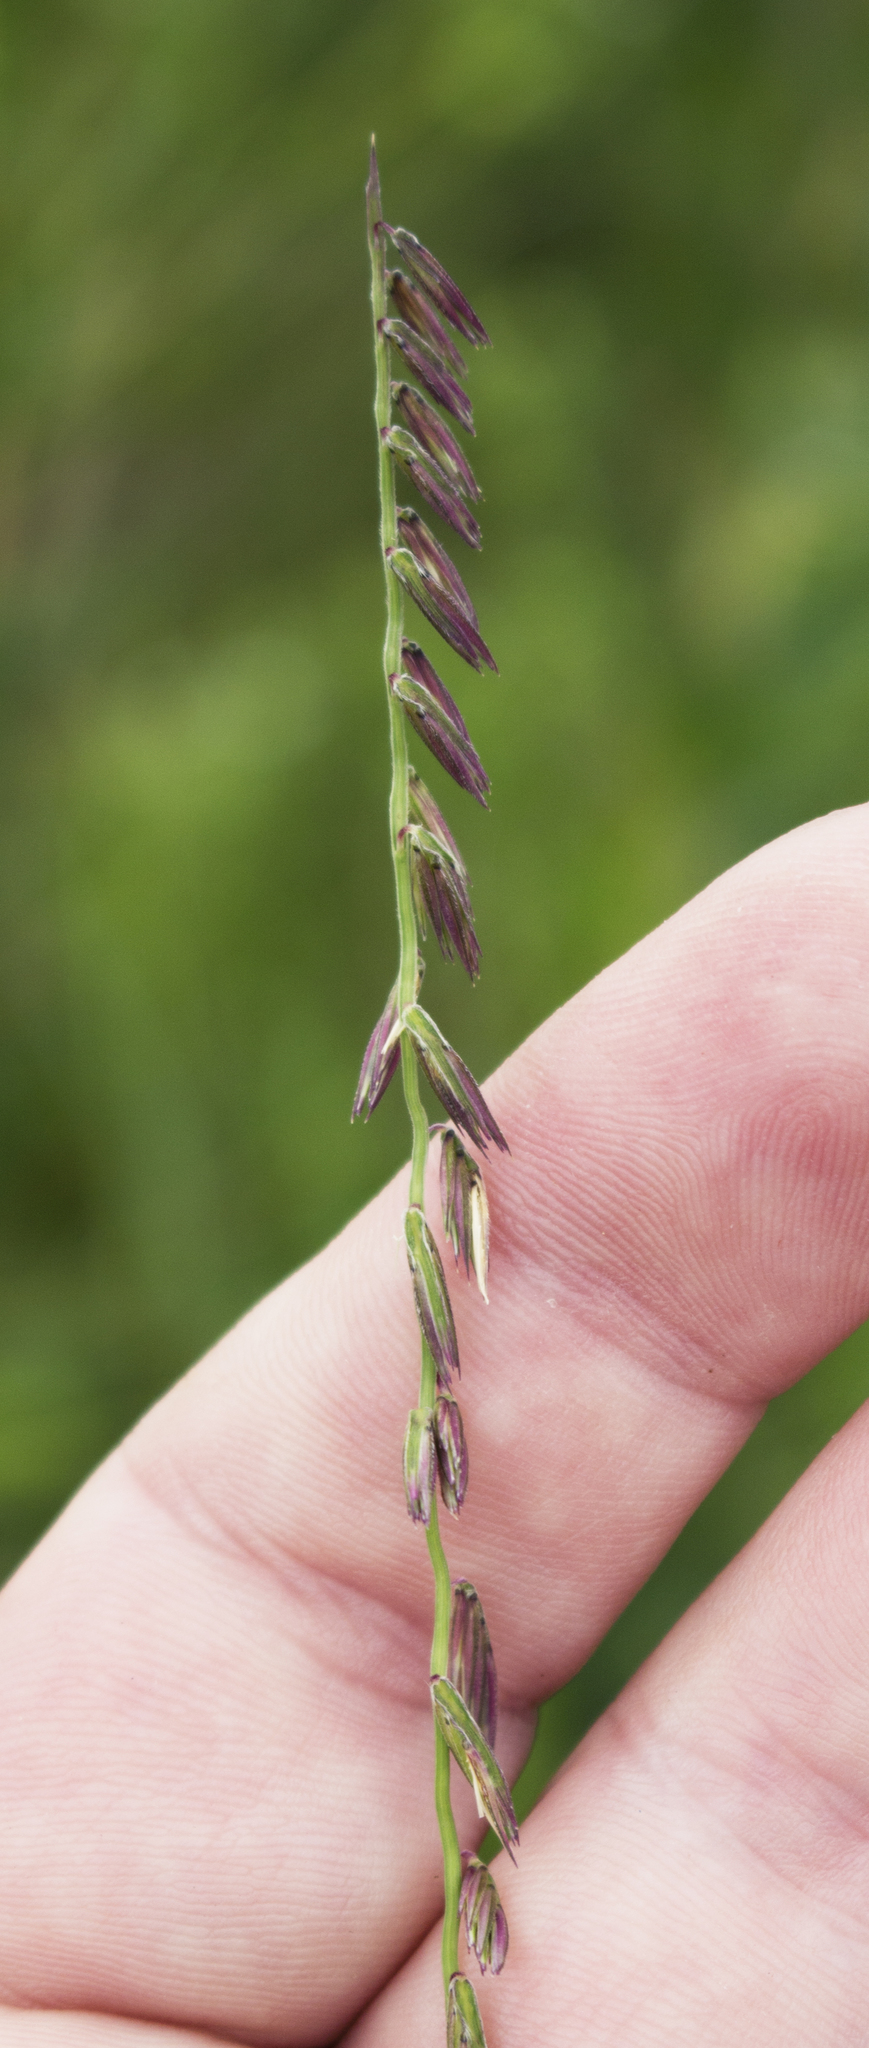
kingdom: Plantae
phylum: Tracheophyta
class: Liliopsida
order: Poales
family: Poaceae
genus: Bouteloua
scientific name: Bouteloua curtipendula
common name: Side-oats grama
